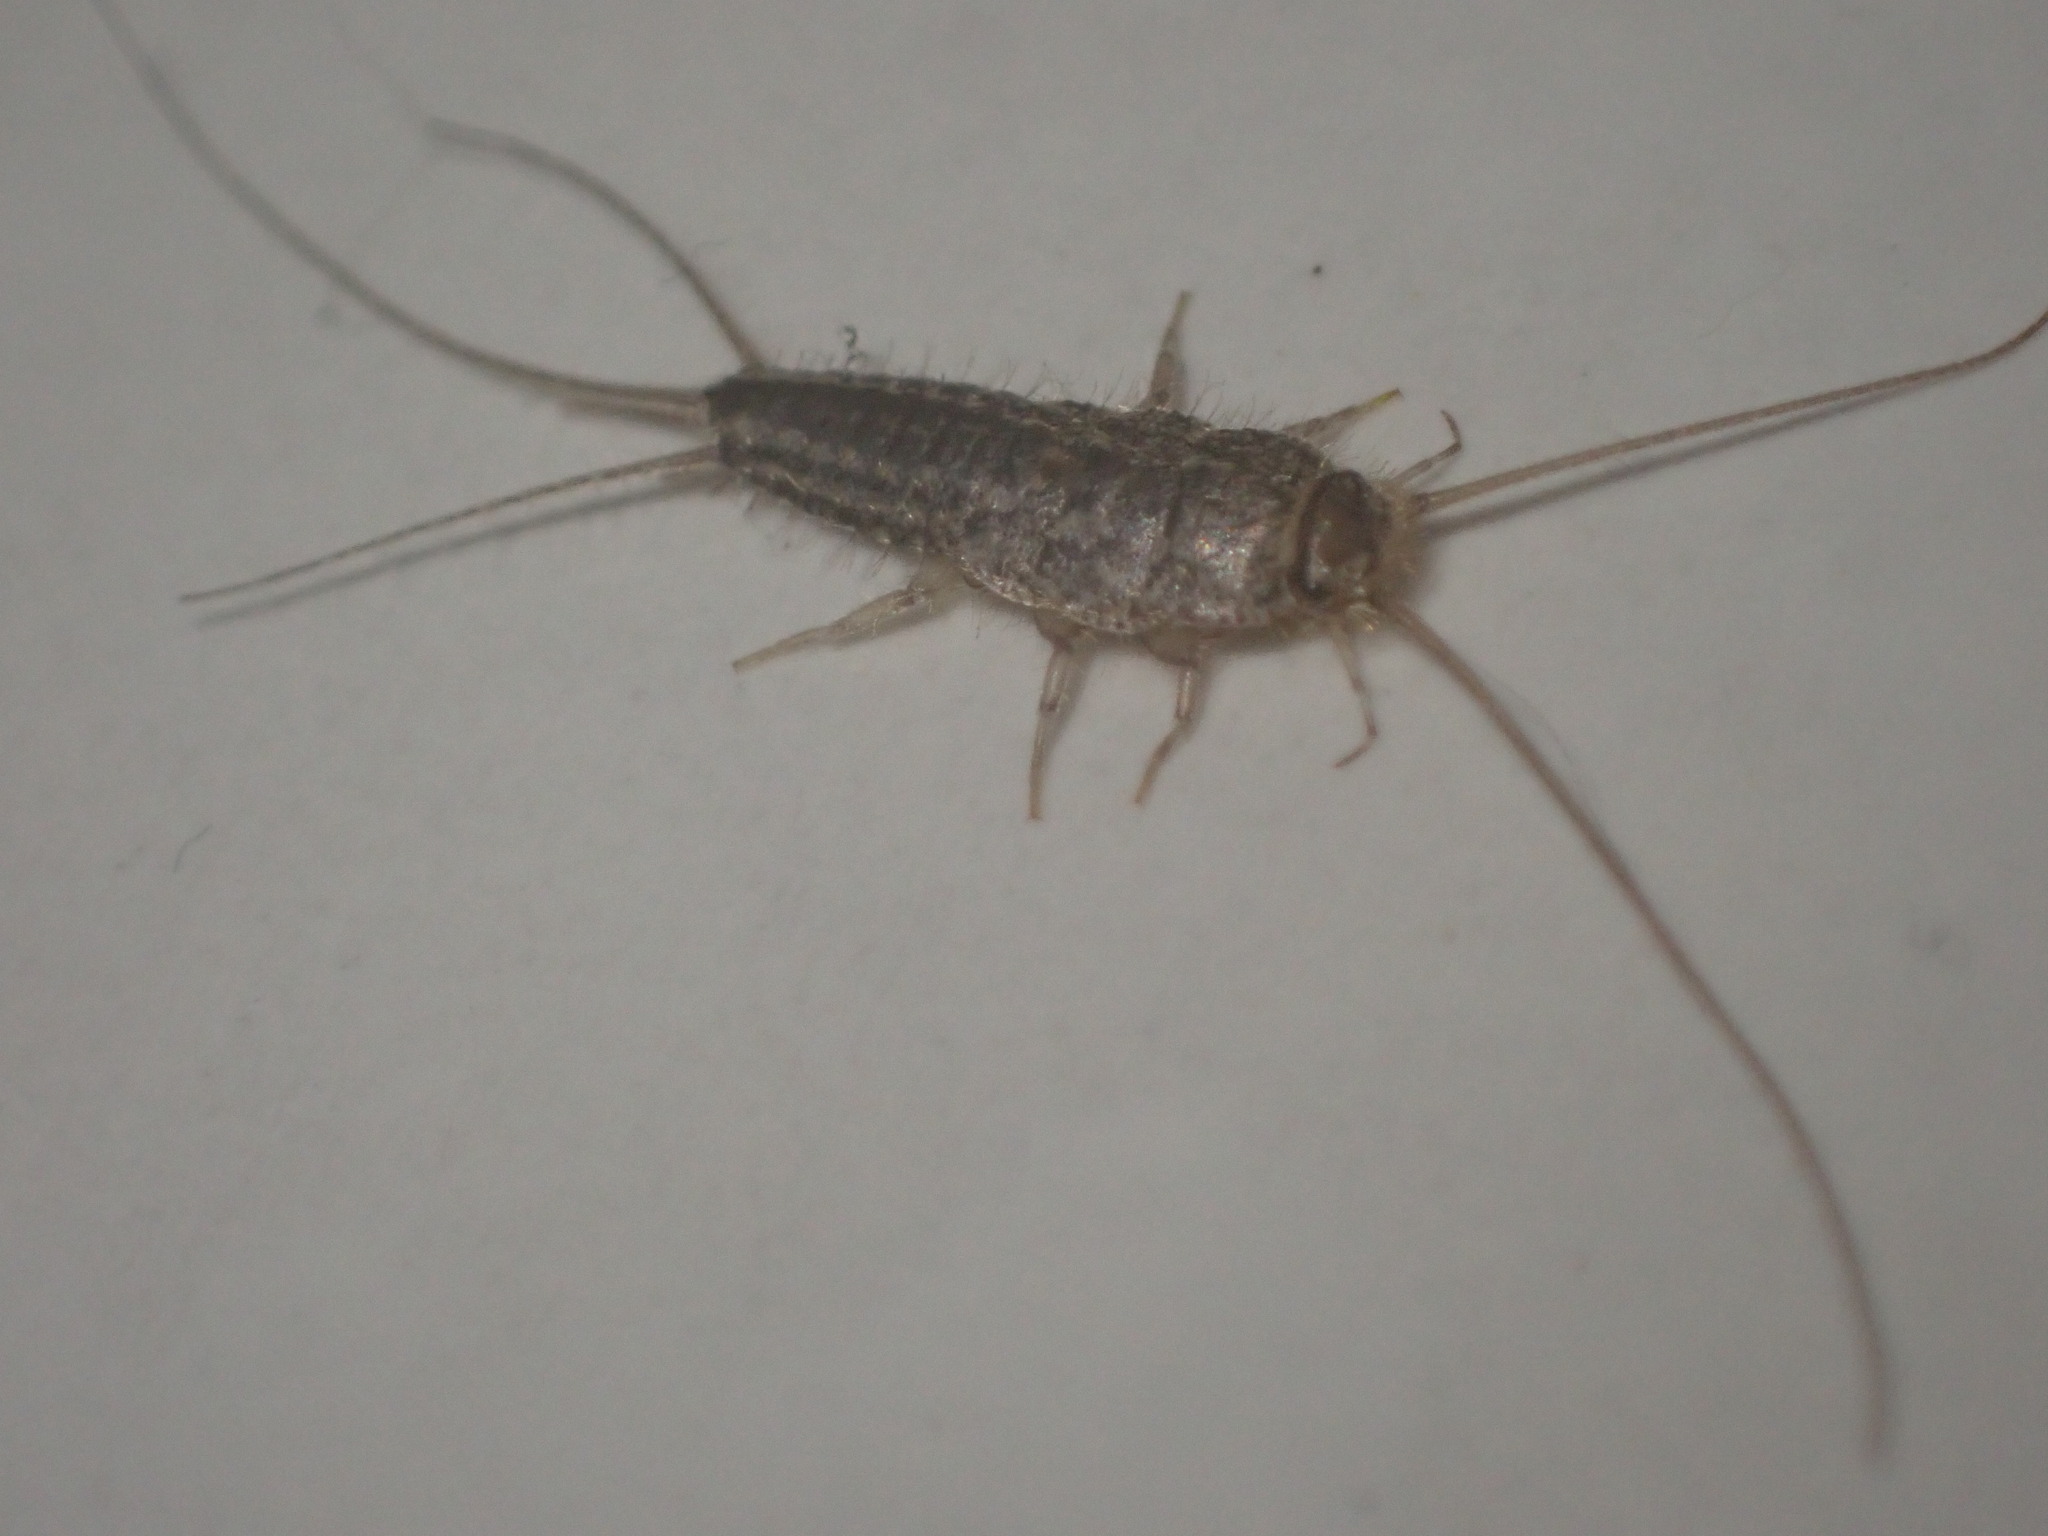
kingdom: Animalia
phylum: Arthropoda
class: Insecta
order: Zygentoma
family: Lepismatidae
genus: Ctenolepisma
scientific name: Ctenolepisma lineata
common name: Four-lined silverfish
